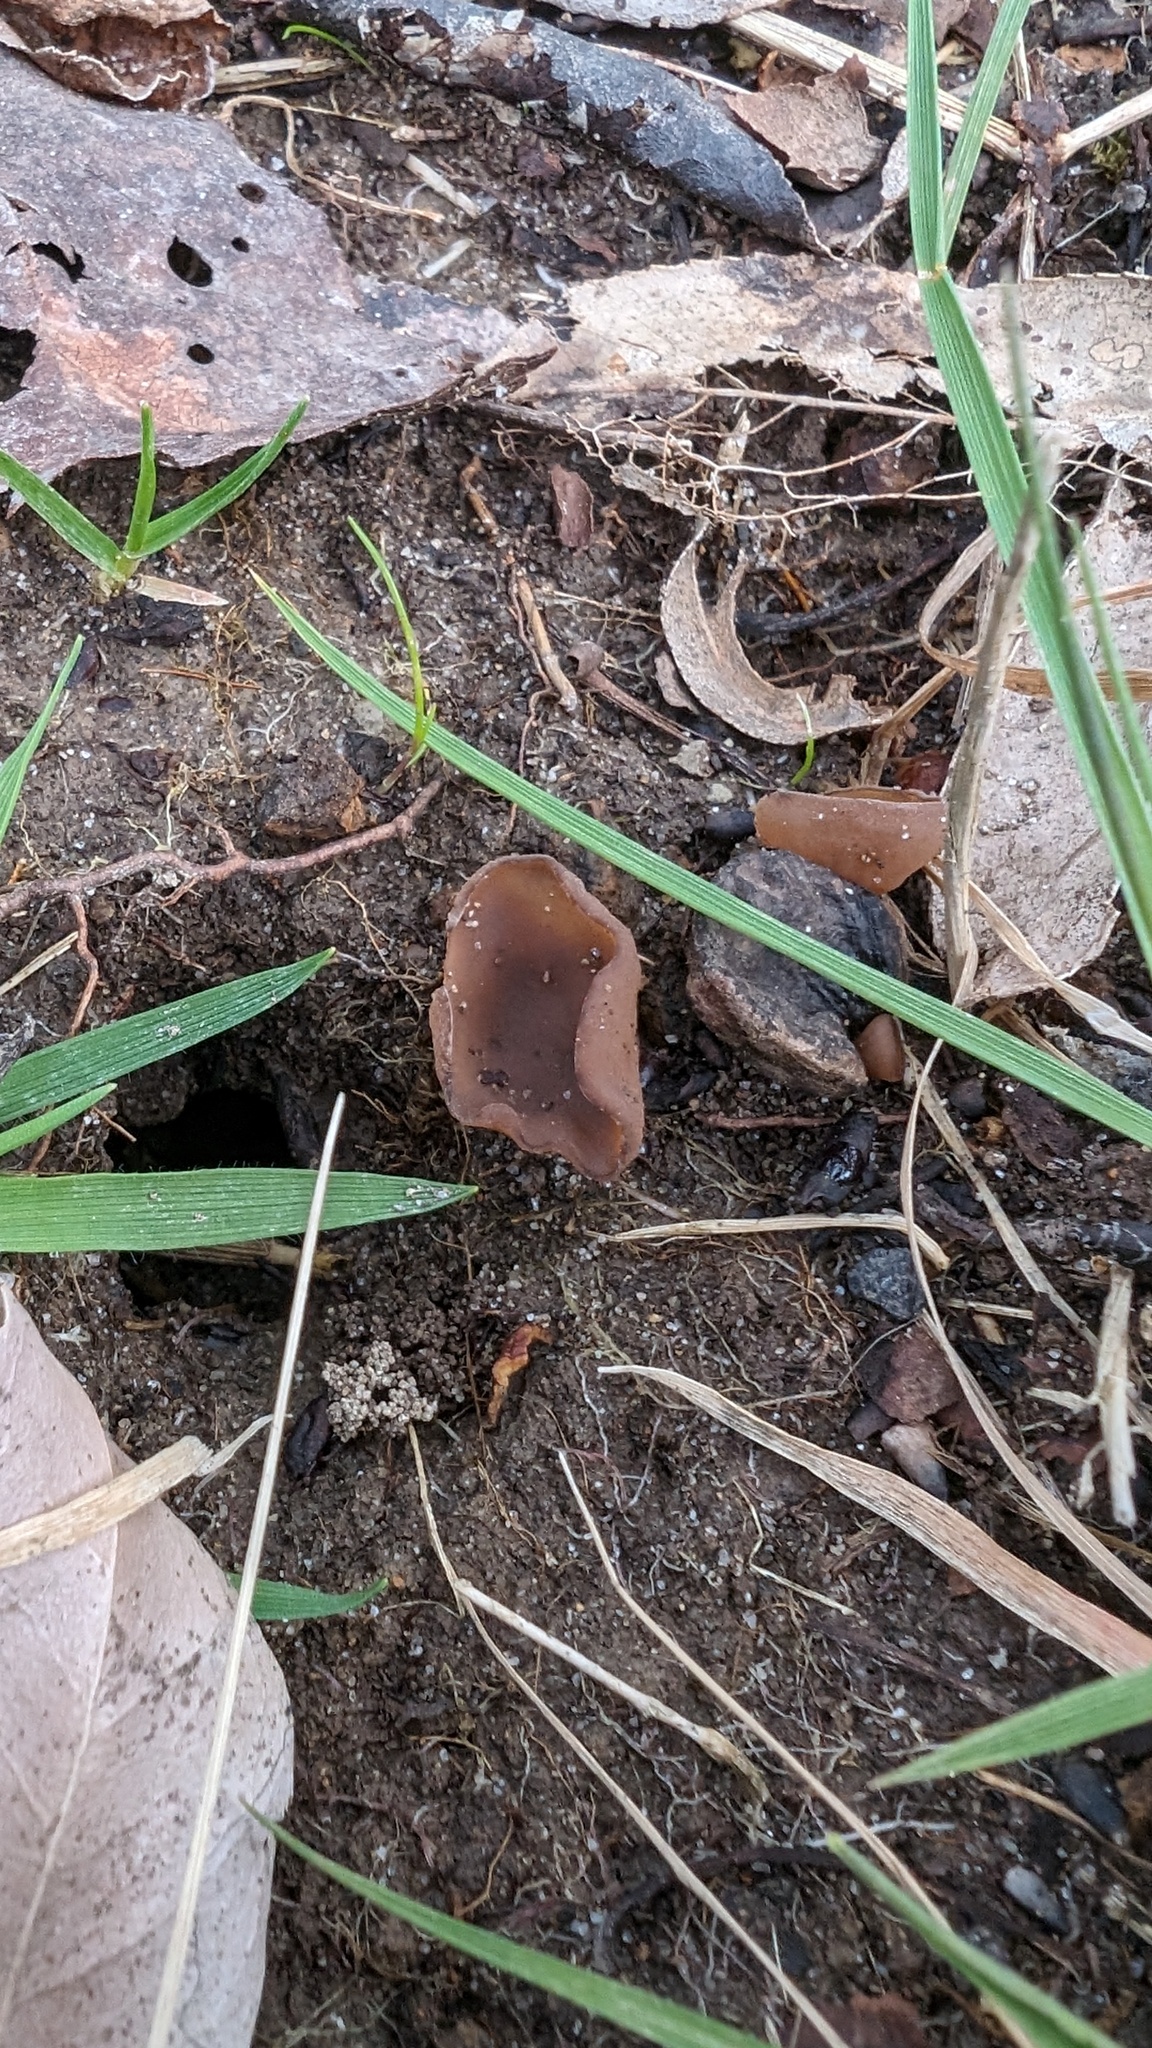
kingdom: Fungi
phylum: Ascomycota
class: Leotiomycetes
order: Helotiales
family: Sclerotiniaceae
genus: Ciborinia
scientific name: Ciborinia camelliae
